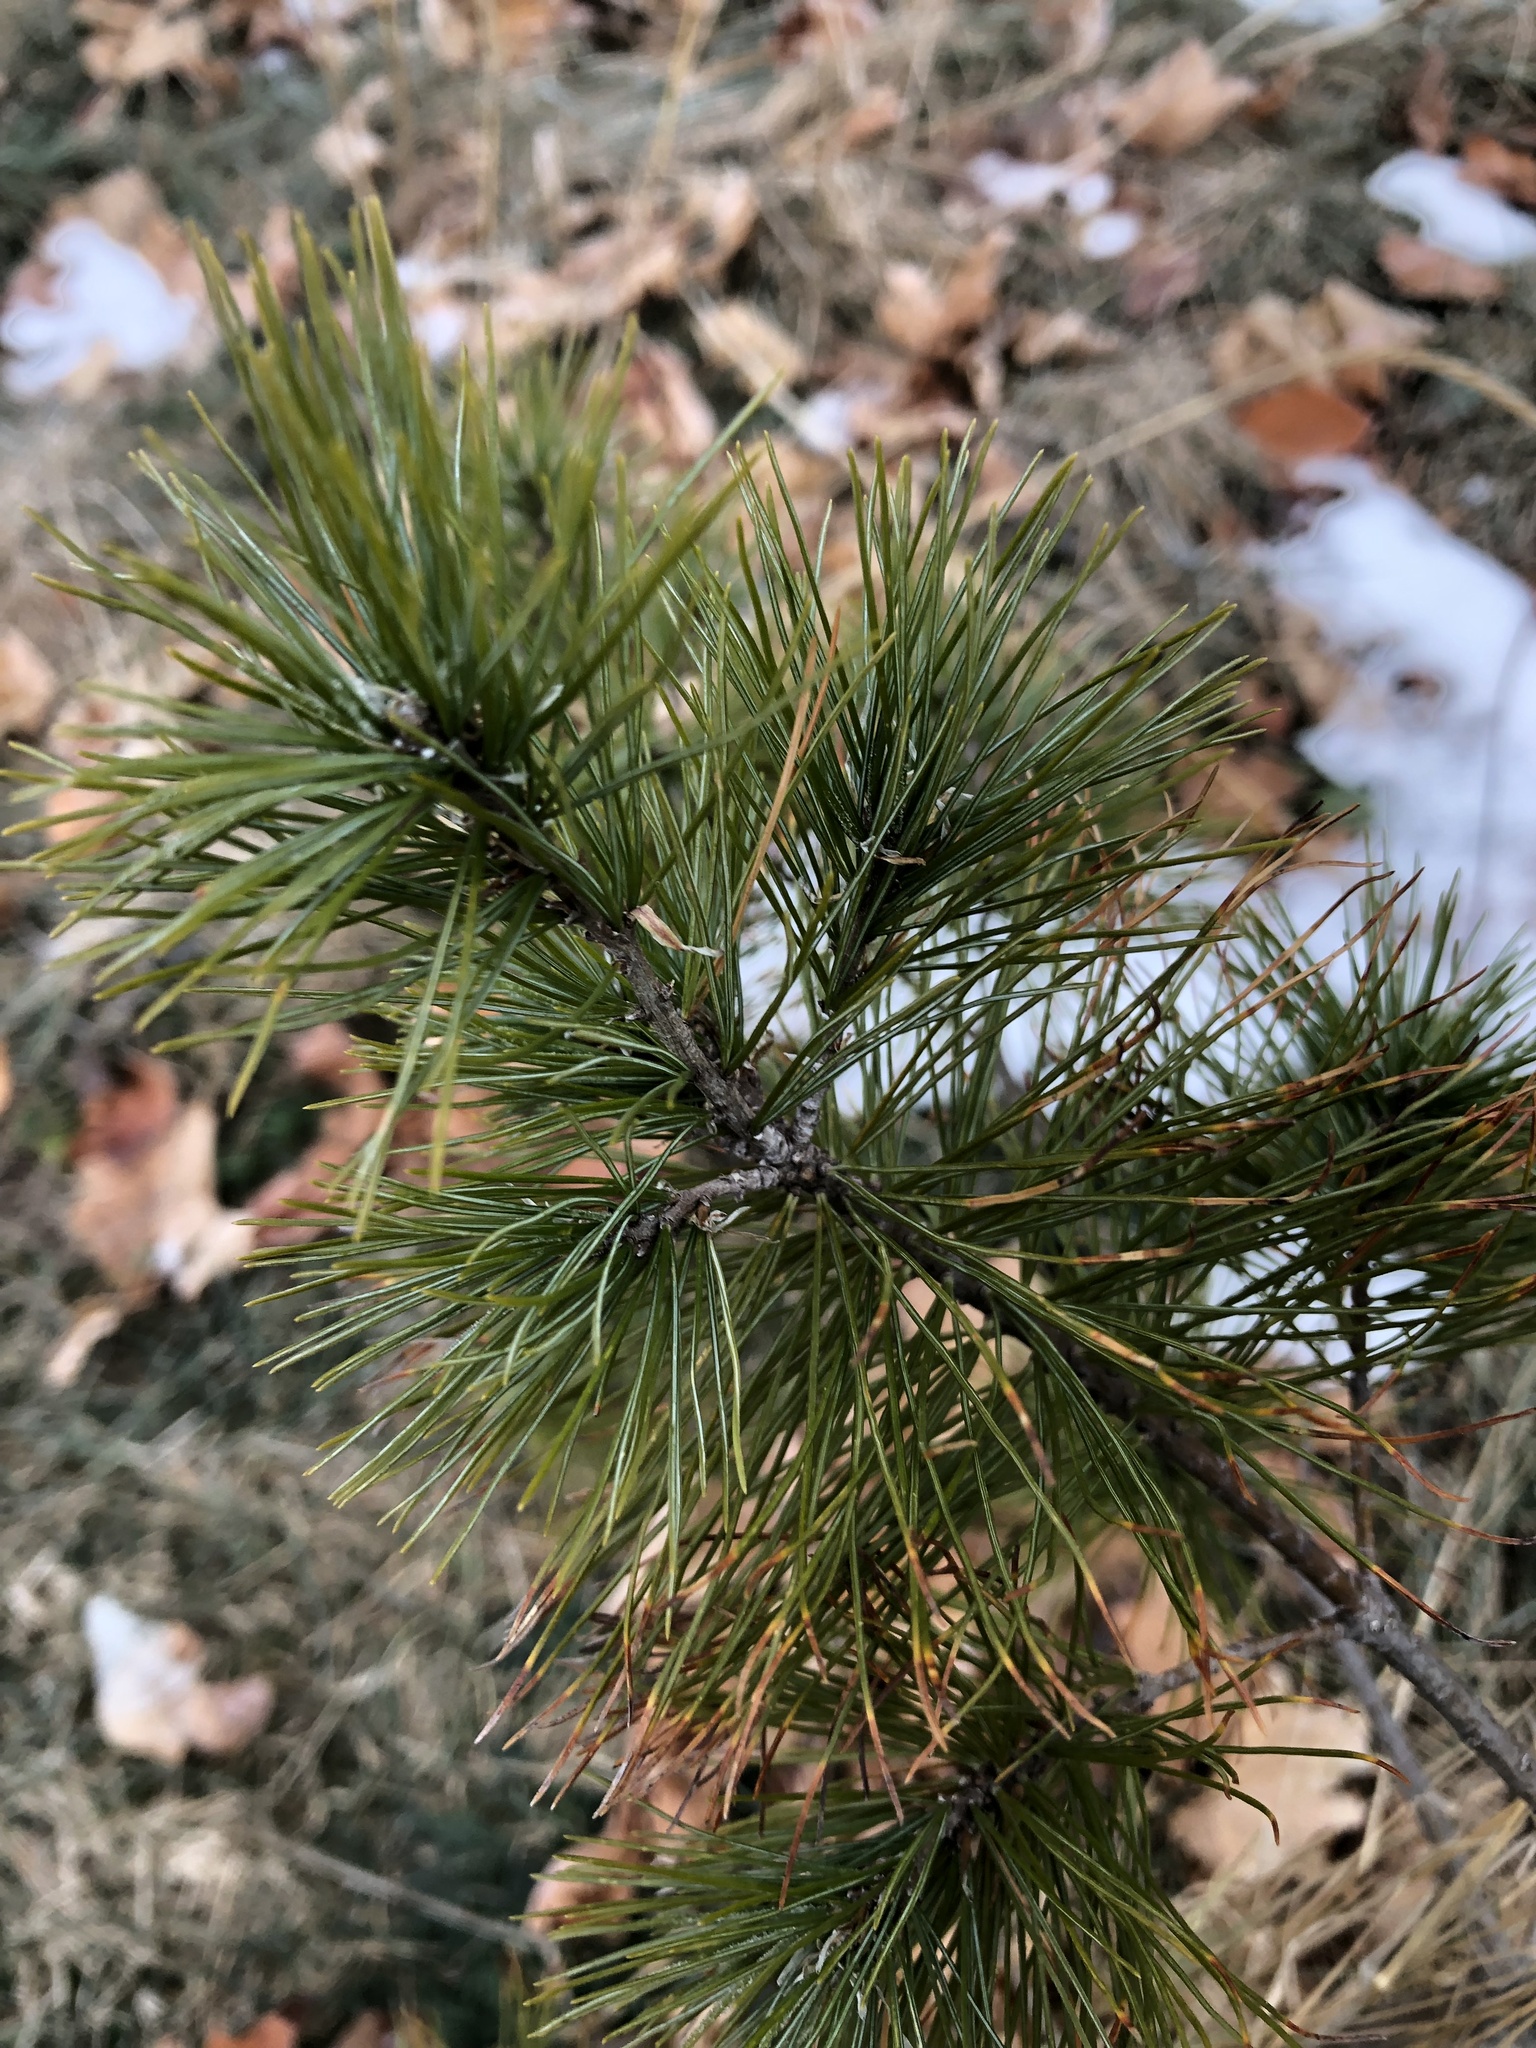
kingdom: Plantae
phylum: Tracheophyta
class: Pinopsida
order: Pinales
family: Pinaceae
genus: Pinus
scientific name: Pinus strobus
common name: Weymouth pine
